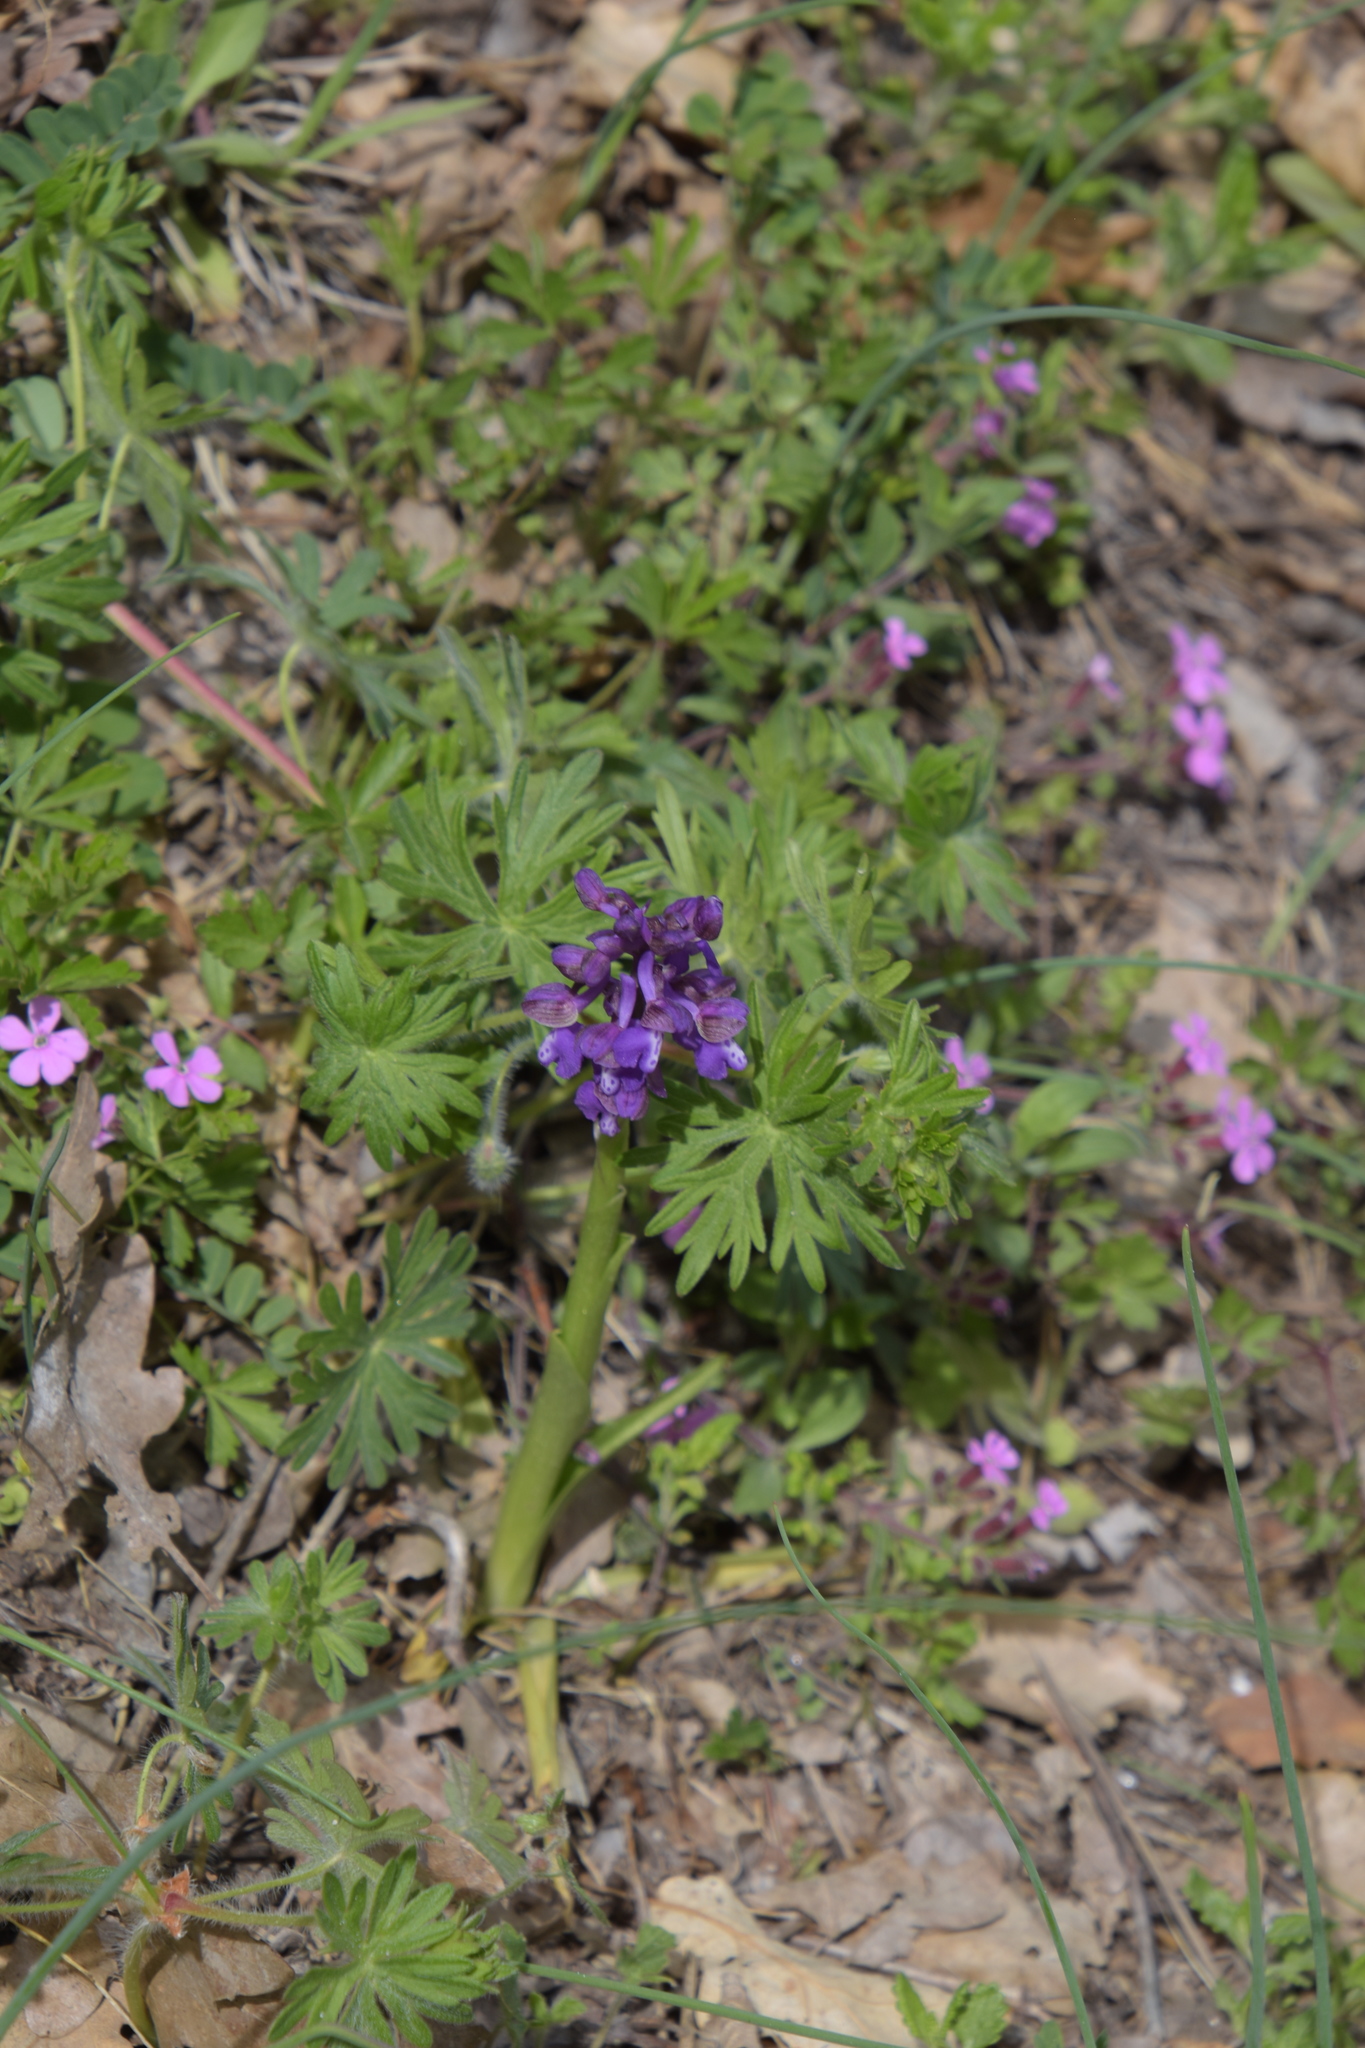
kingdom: Plantae
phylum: Tracheophyta
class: Liliopsida
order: Asparagales
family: Orchidaceae
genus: Anacamptis
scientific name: Anacamptis morio
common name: Green-winged orchid
